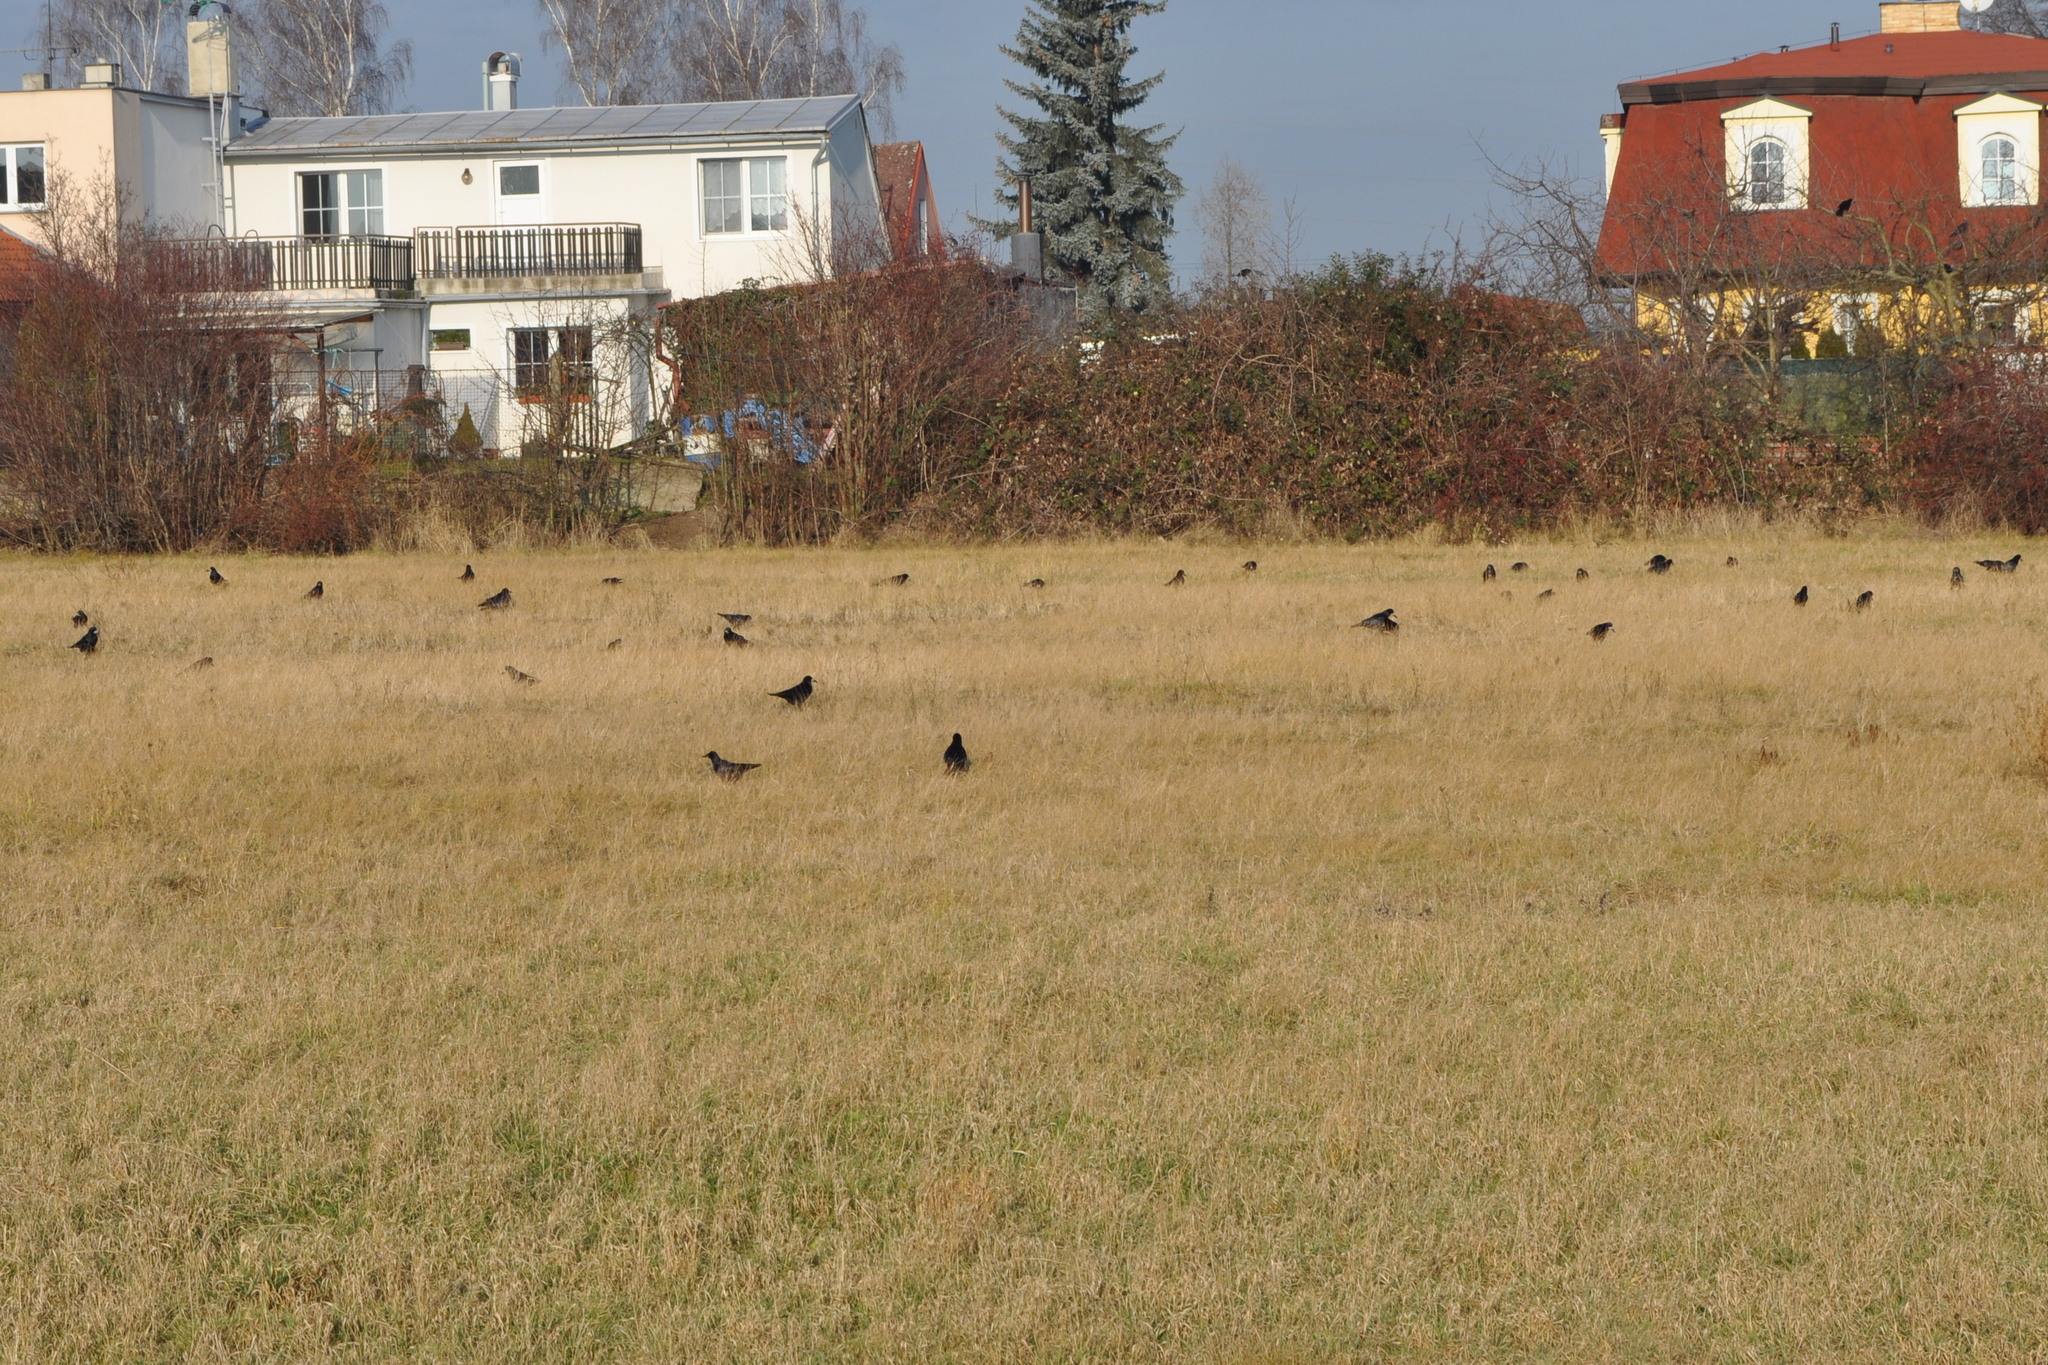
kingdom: Animalia
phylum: Chordata
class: Aves
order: Passeriformes
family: Corvidae
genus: Corvus
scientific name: Corvus frugilegus
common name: Rook
